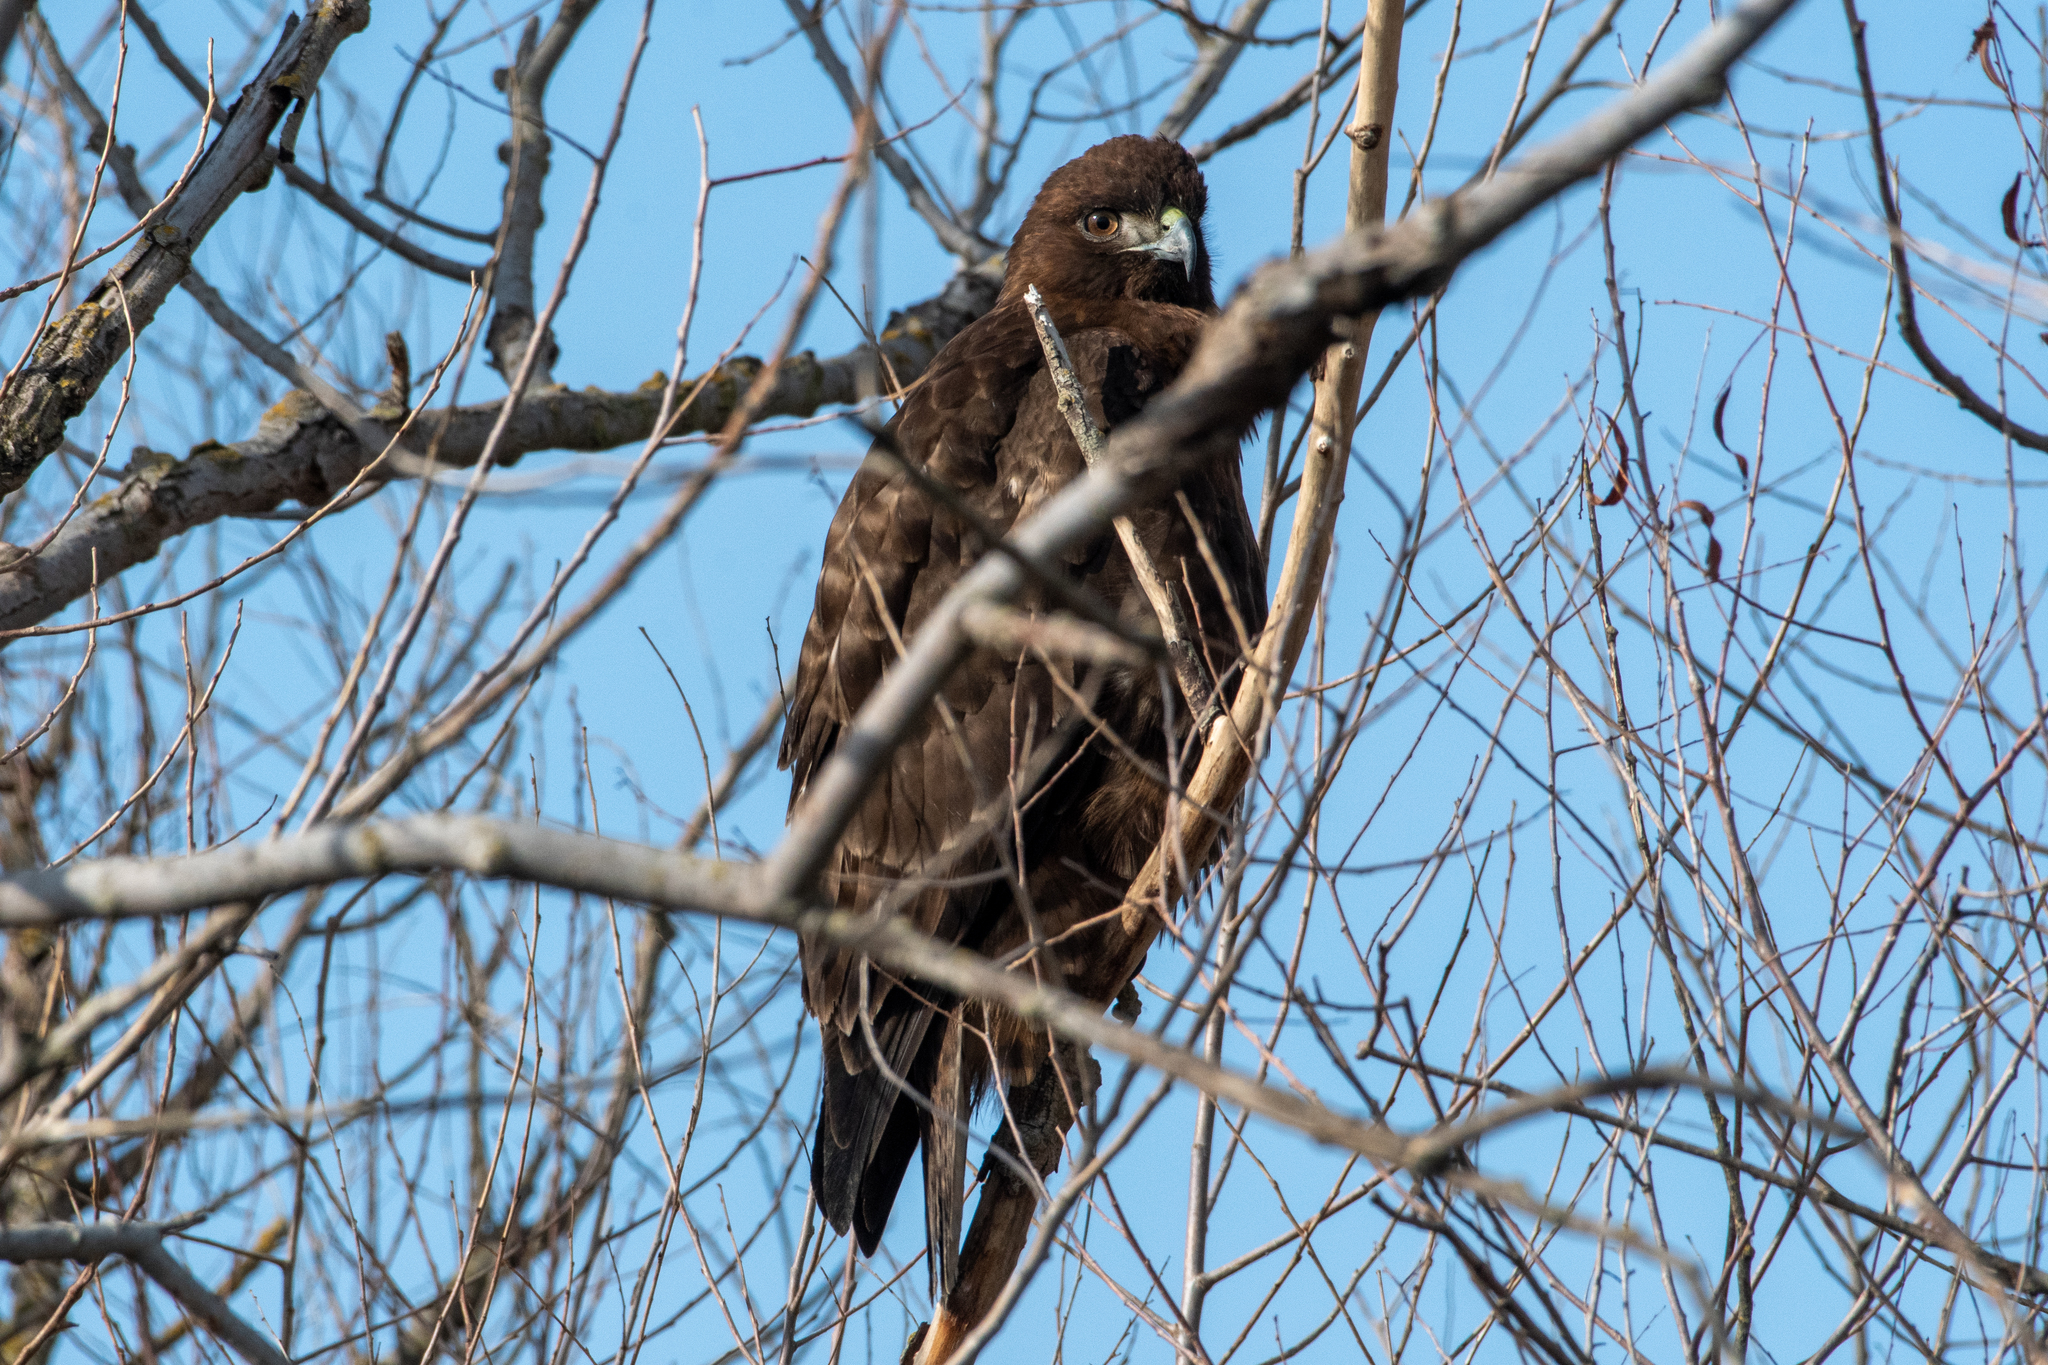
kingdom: Animalia
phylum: Chordata
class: Aves
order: Accipitriformes
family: Accipitridae
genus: Buteo
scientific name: Buteo jamaicensis
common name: Red-tailed hawk
